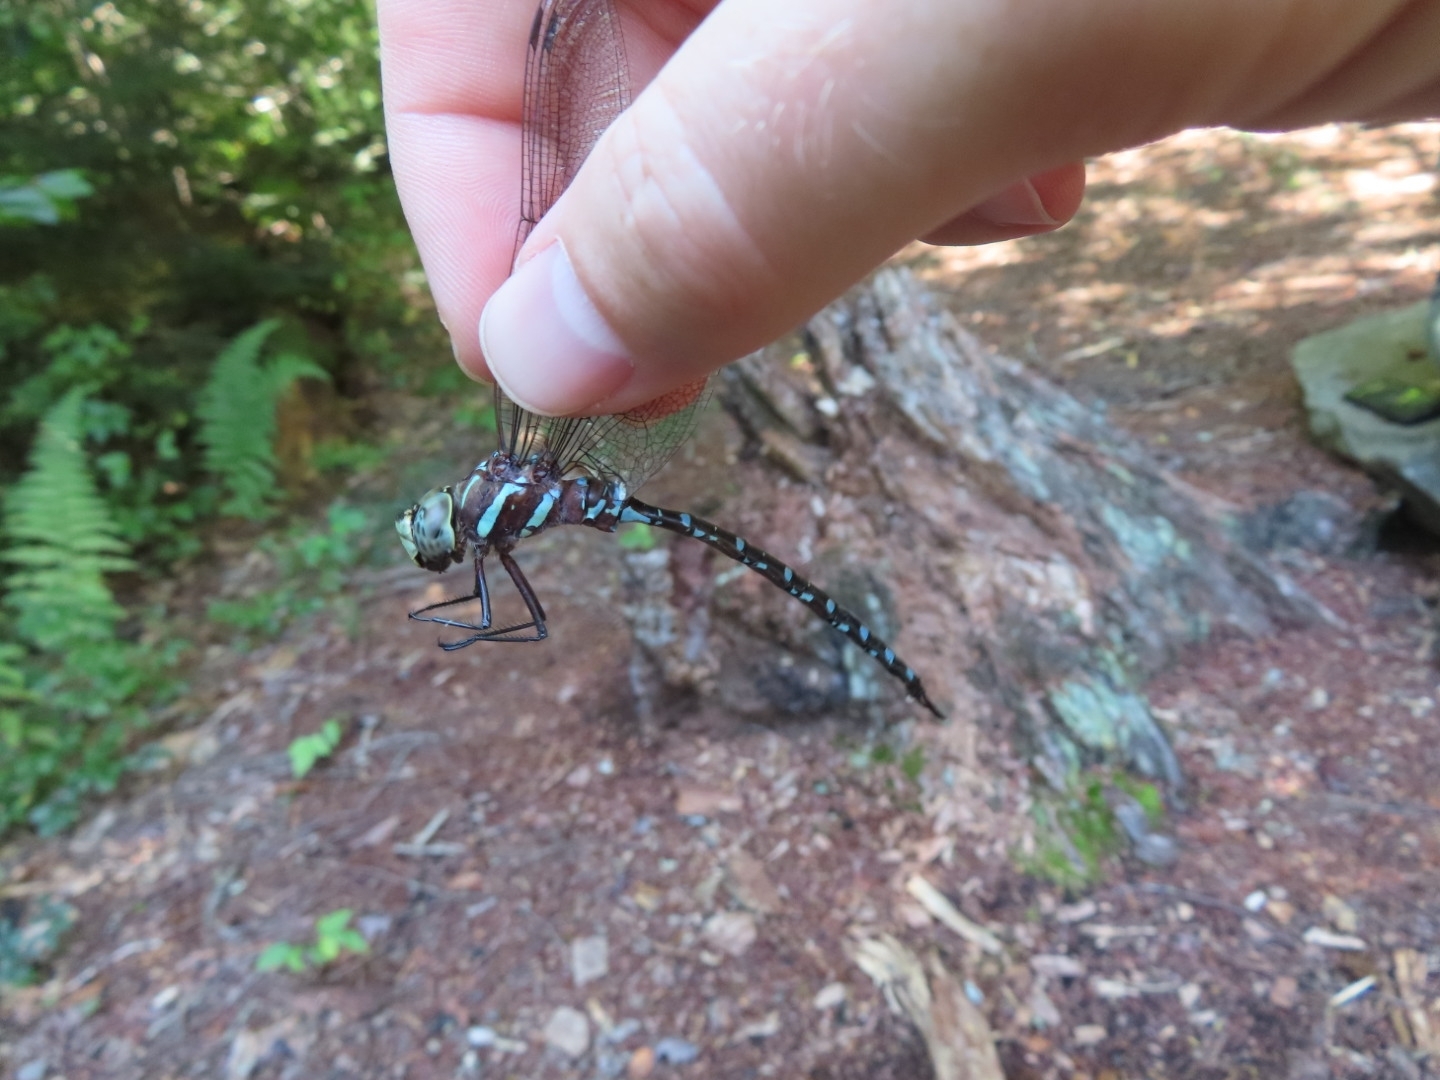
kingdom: Animalia
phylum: Arthropoda
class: Insecta
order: Odonata
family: Aeshnidae
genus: Aeshna
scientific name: Aeshna tuberculifera
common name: Aeschne à tubercules
